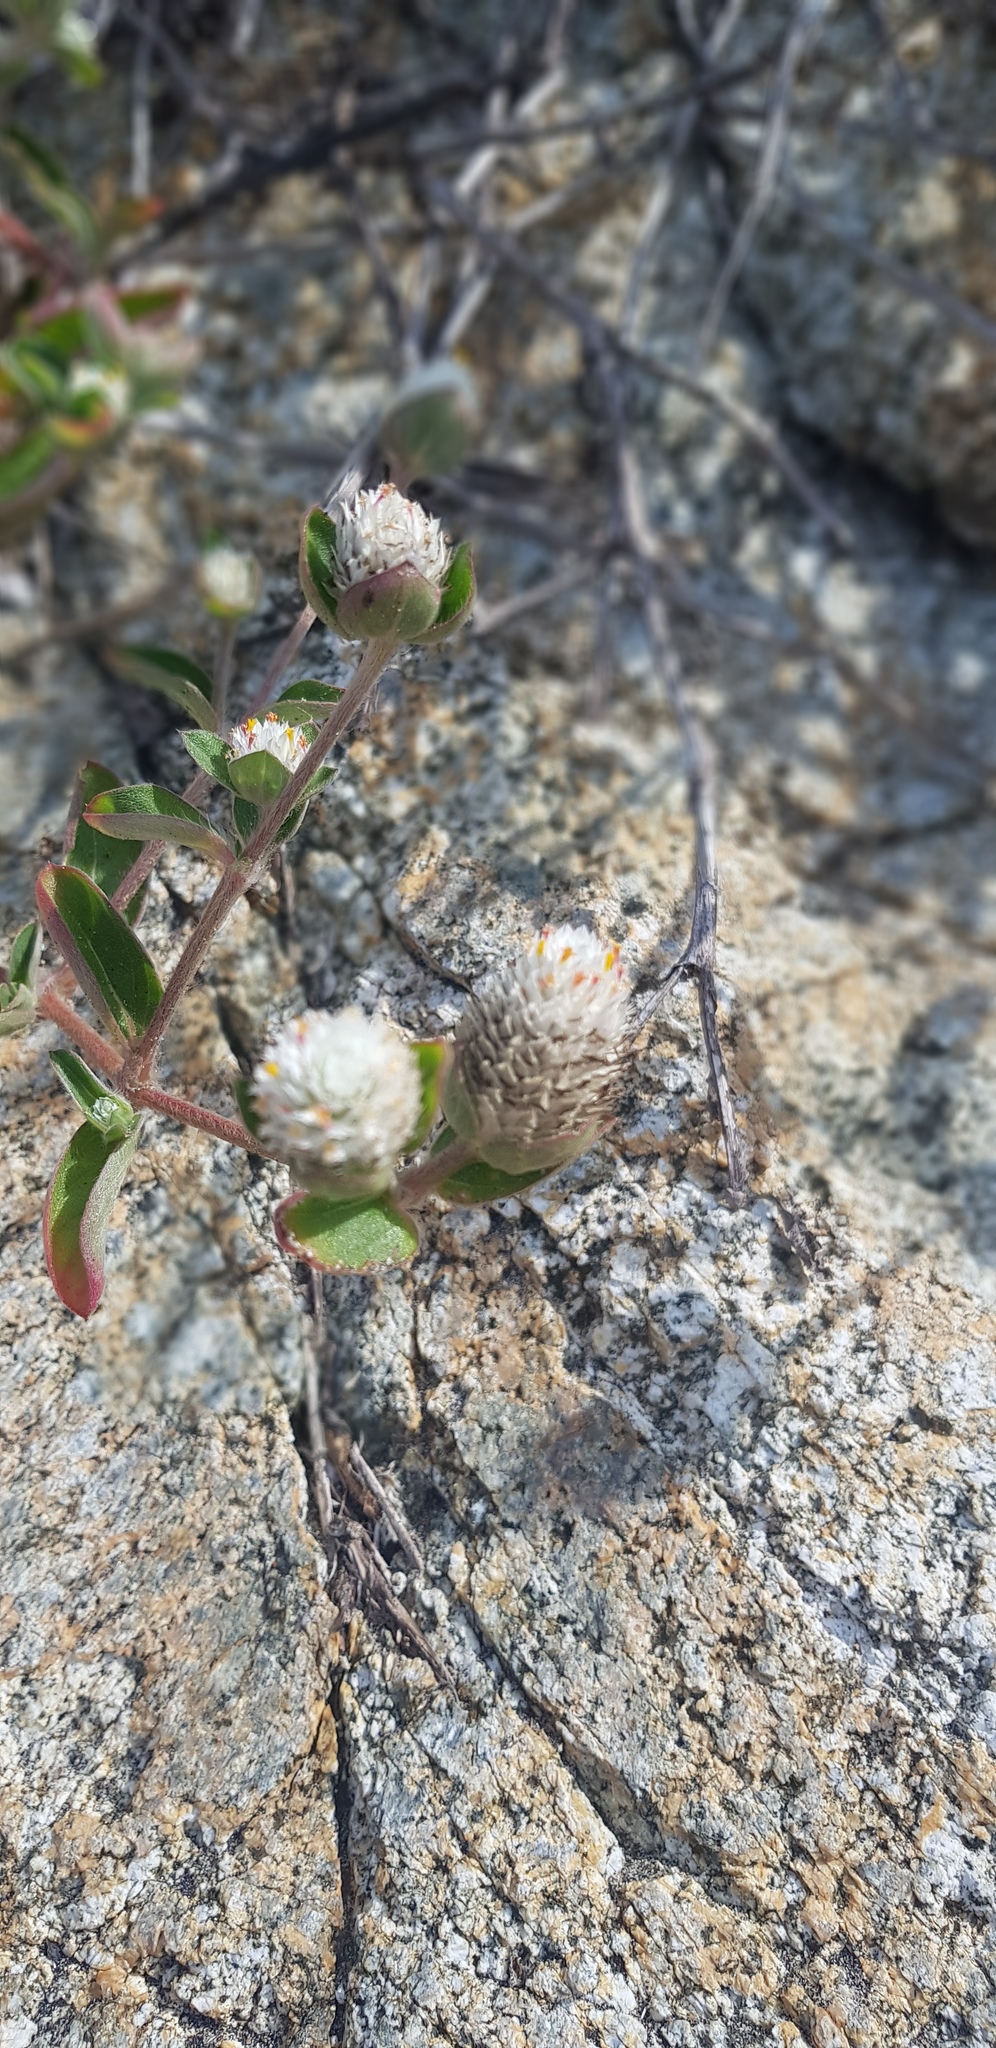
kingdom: Plantae
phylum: Tracheophyta
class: Magnoliopsida
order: Caryophyllales
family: Amaranthaceae
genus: Gomphrena
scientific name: Gomphrena serrata
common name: Arrasa con todo
